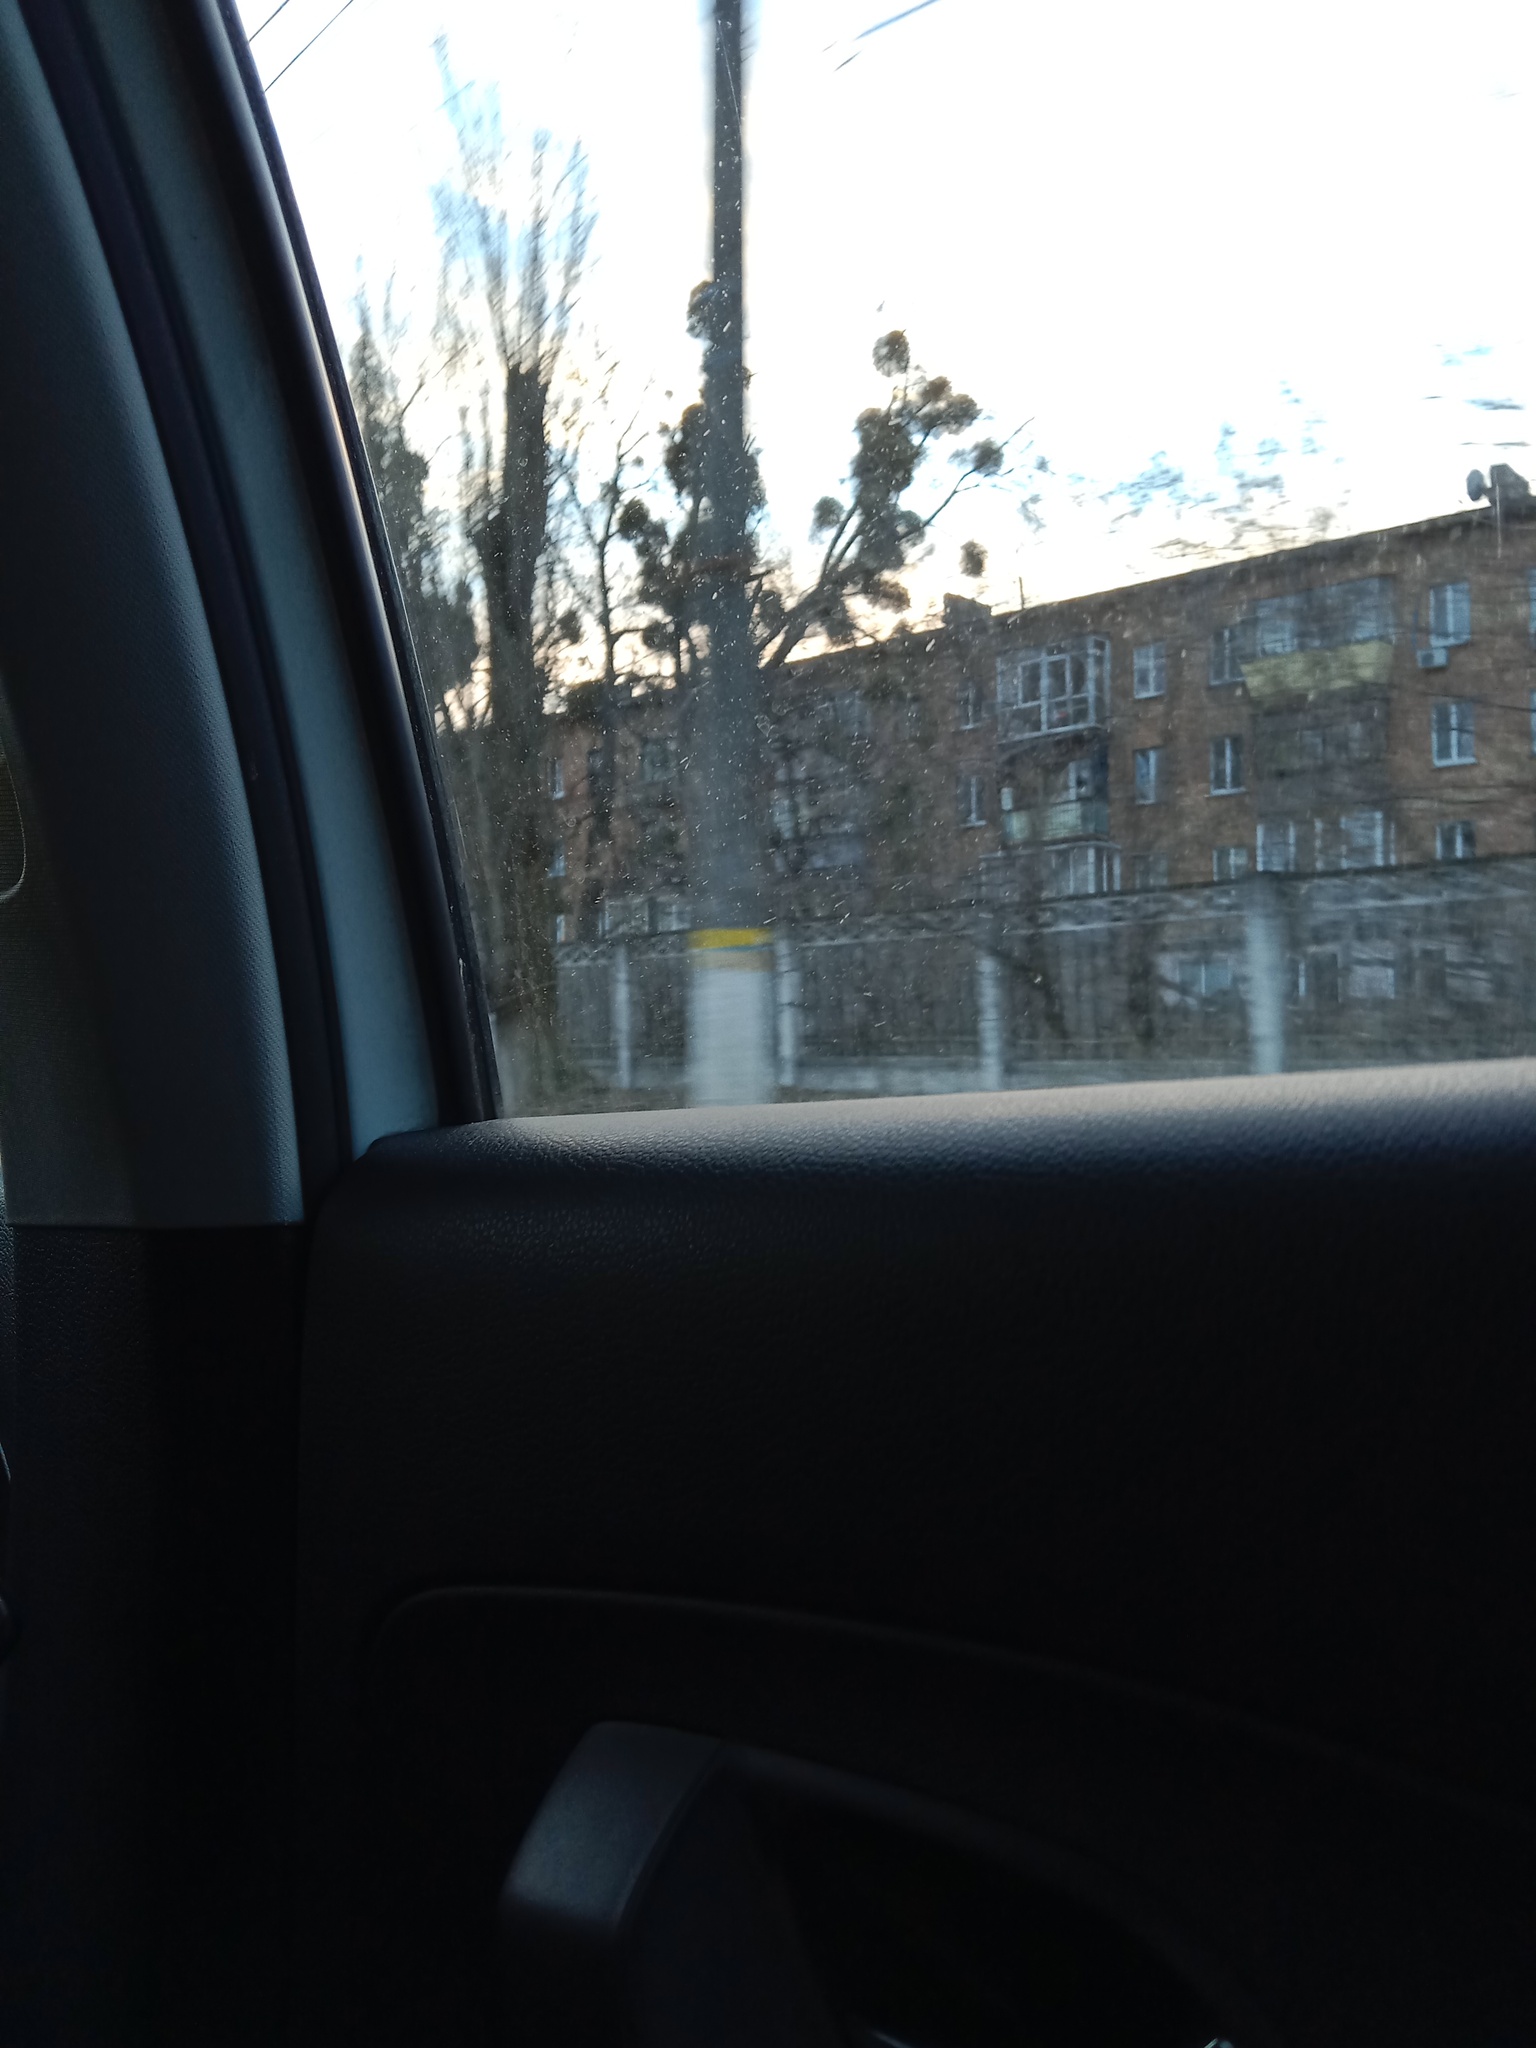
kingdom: Plantae
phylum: Tracheophyta
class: Magnoliopsida
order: Santalales
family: Viscaceae
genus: Viscum
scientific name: Viscum album
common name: Mistletoe
